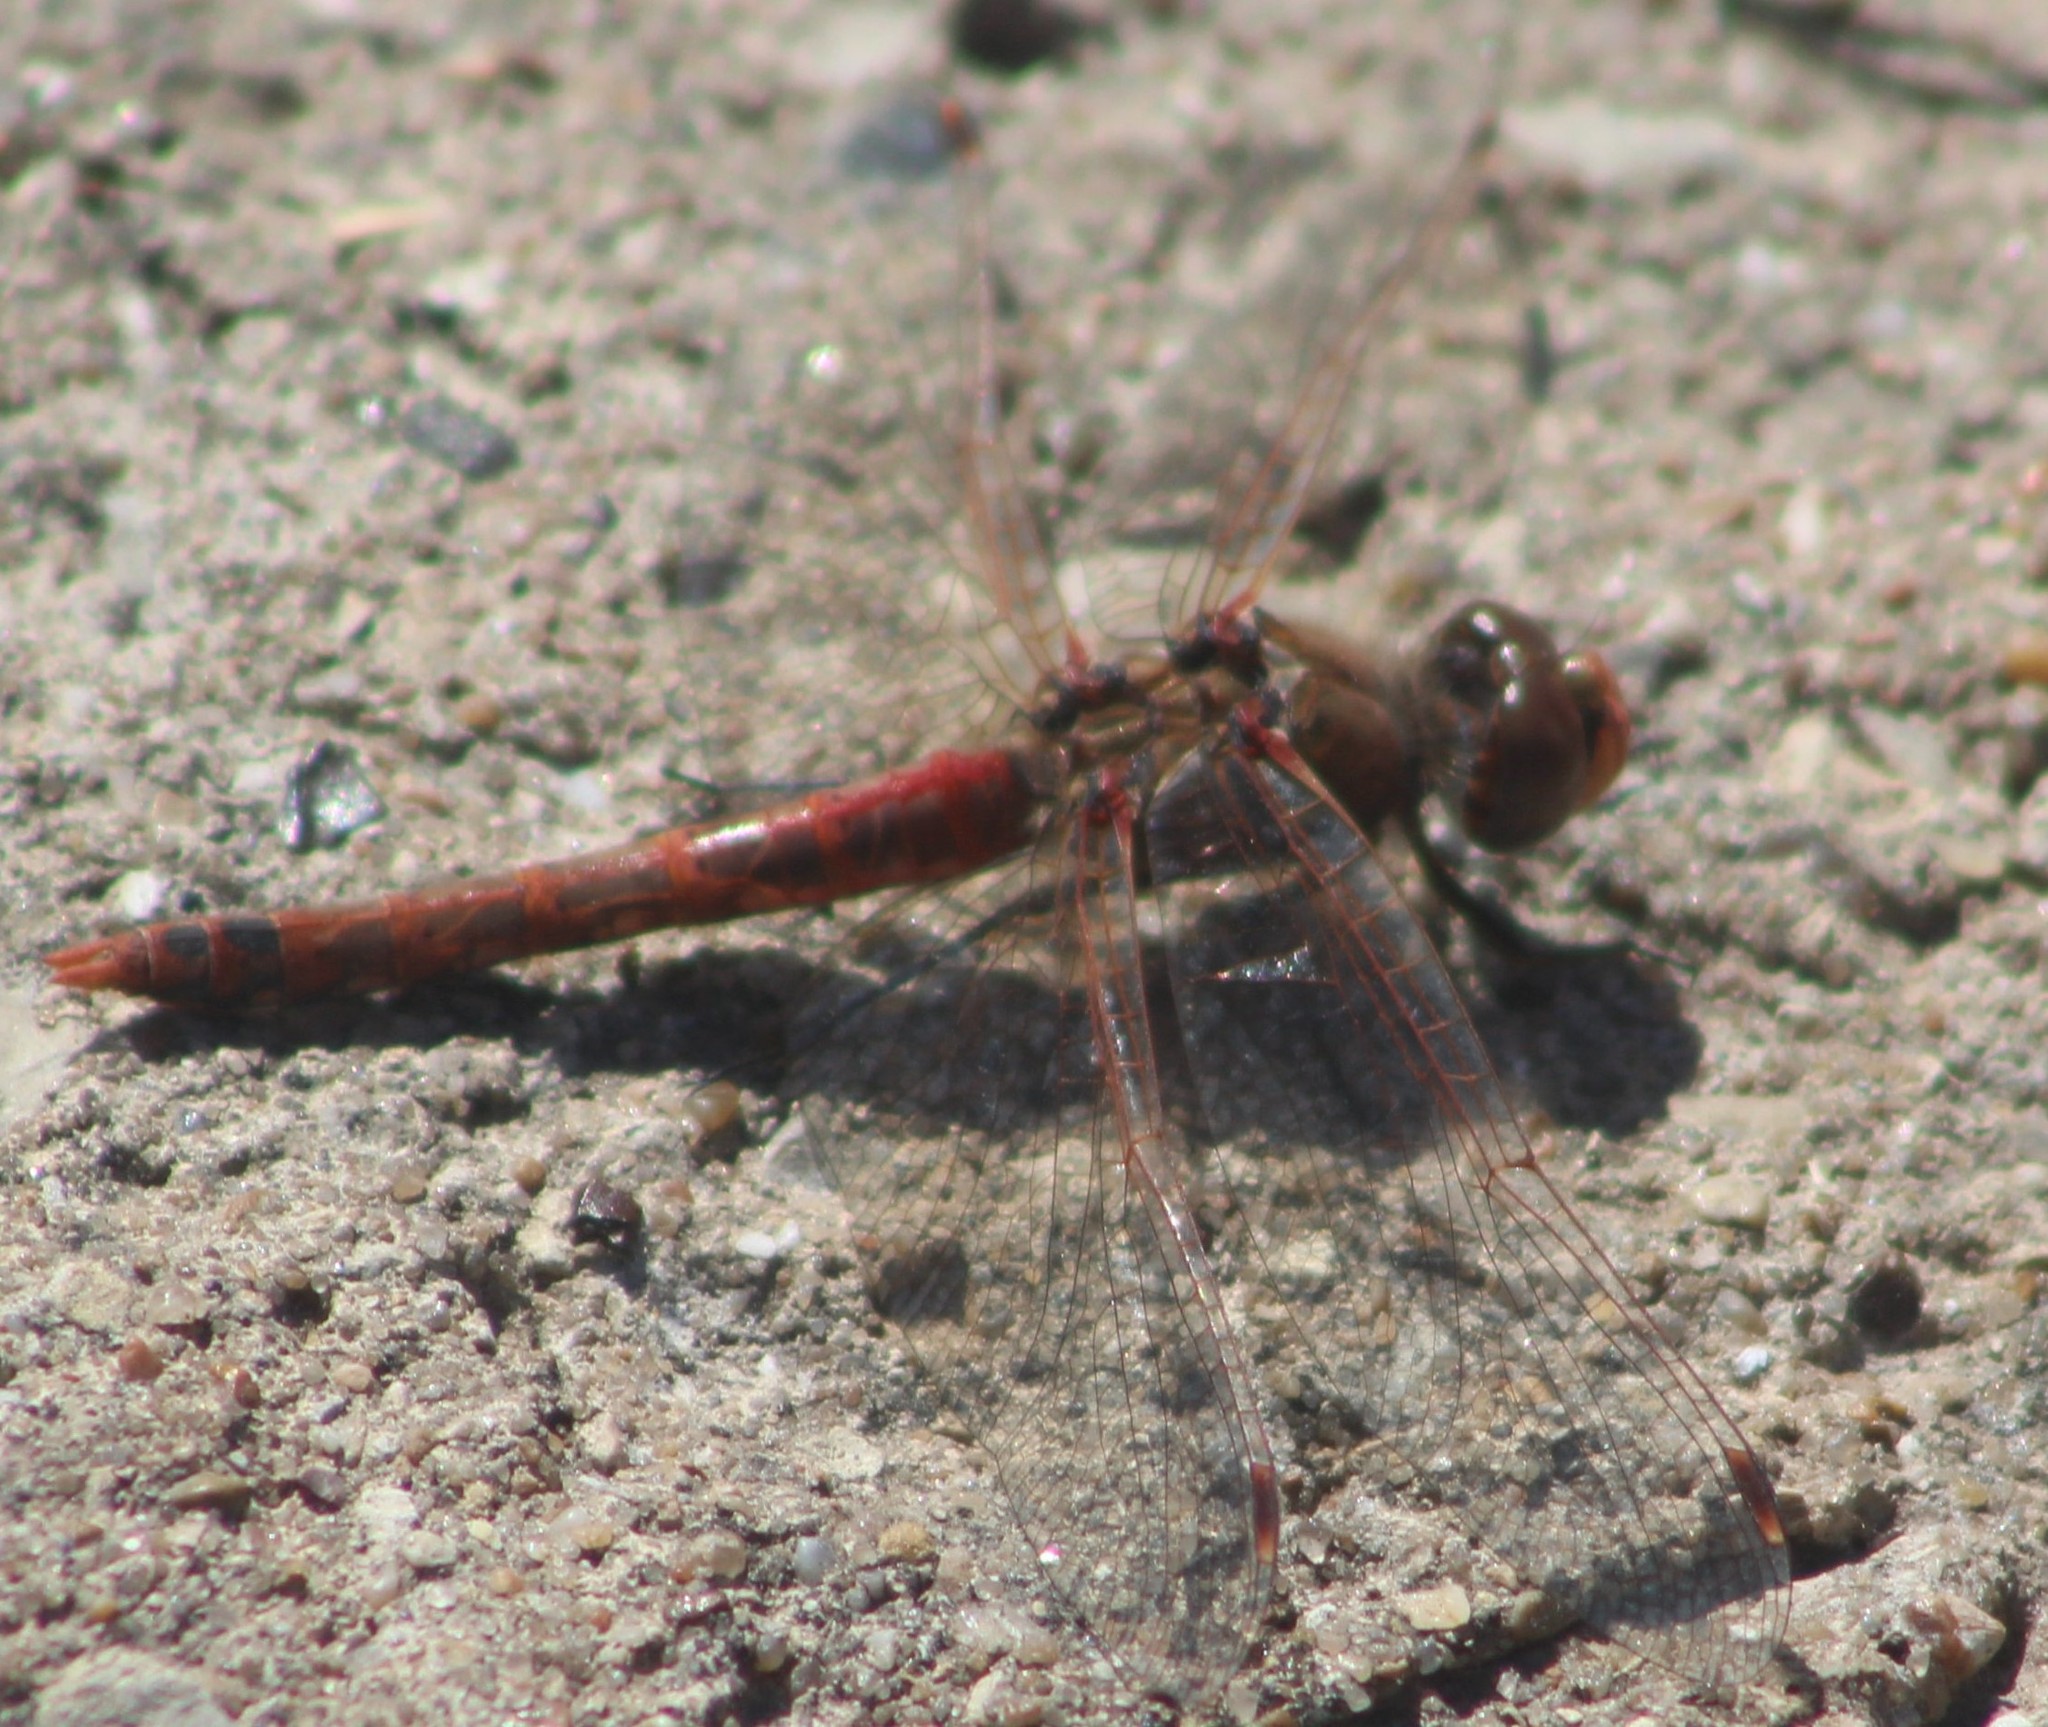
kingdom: Animalia
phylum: Arthropoda
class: Insecta
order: Odonata
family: Libellulidae
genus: Sympetrum
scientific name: Sympetrum corruptum
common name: Variegated meadowhawk
